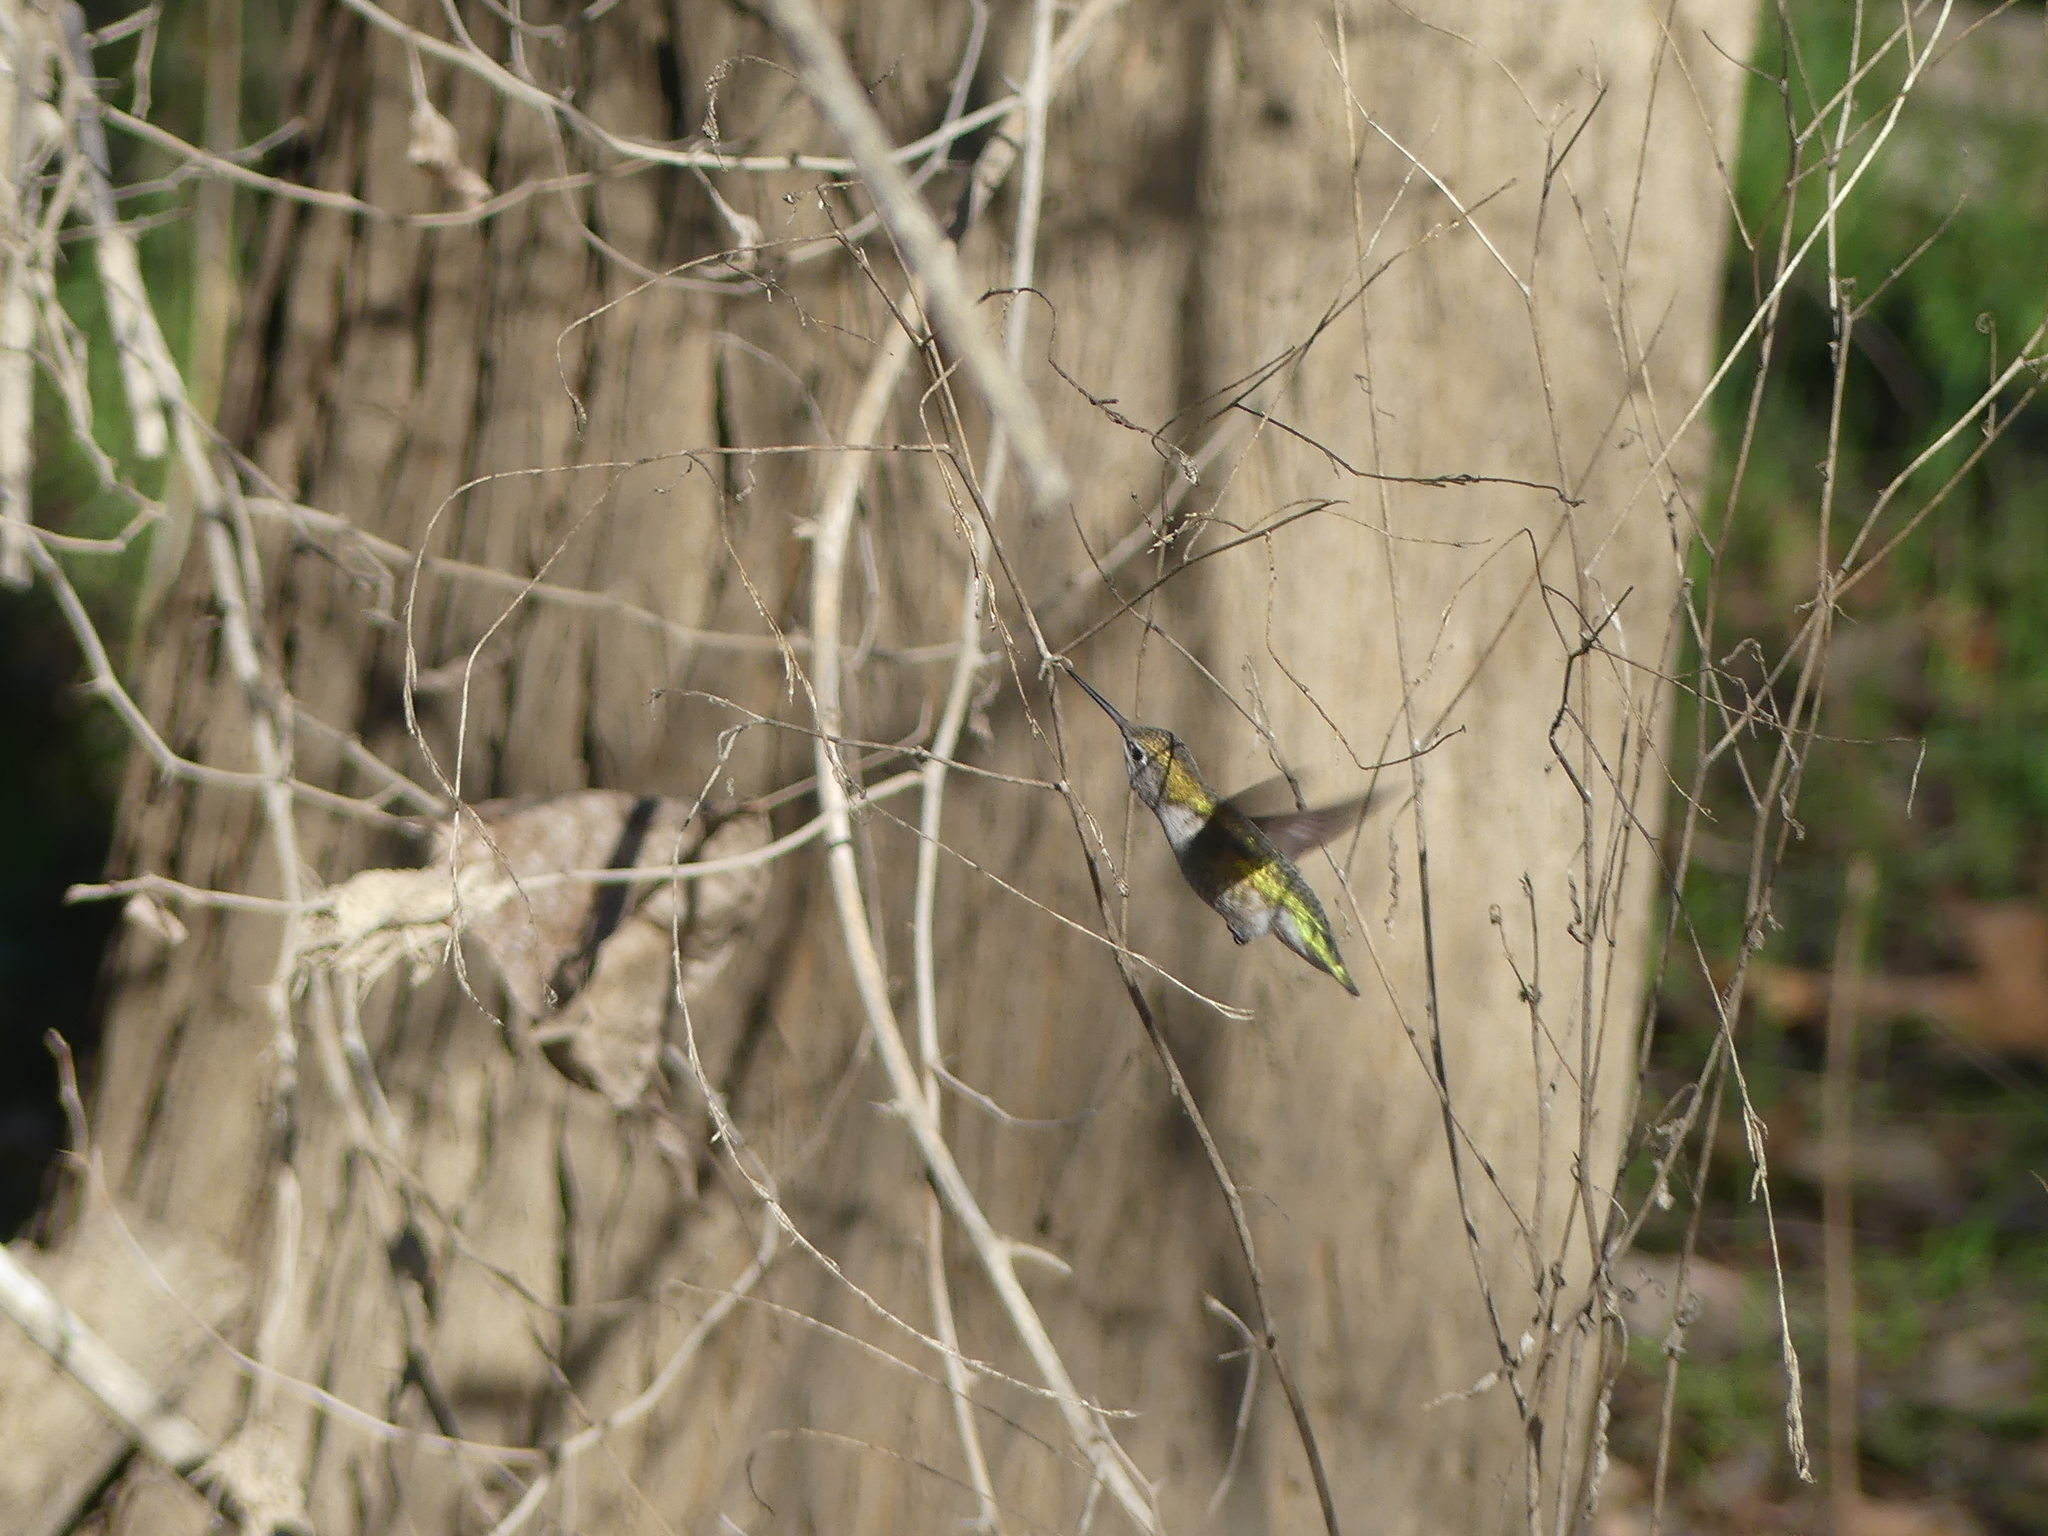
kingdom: Animalia
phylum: Chordata
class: Aves
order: Apodiformes
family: Trochilidae
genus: Calypte
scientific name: Calypte anna
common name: Anna's hummingbird
